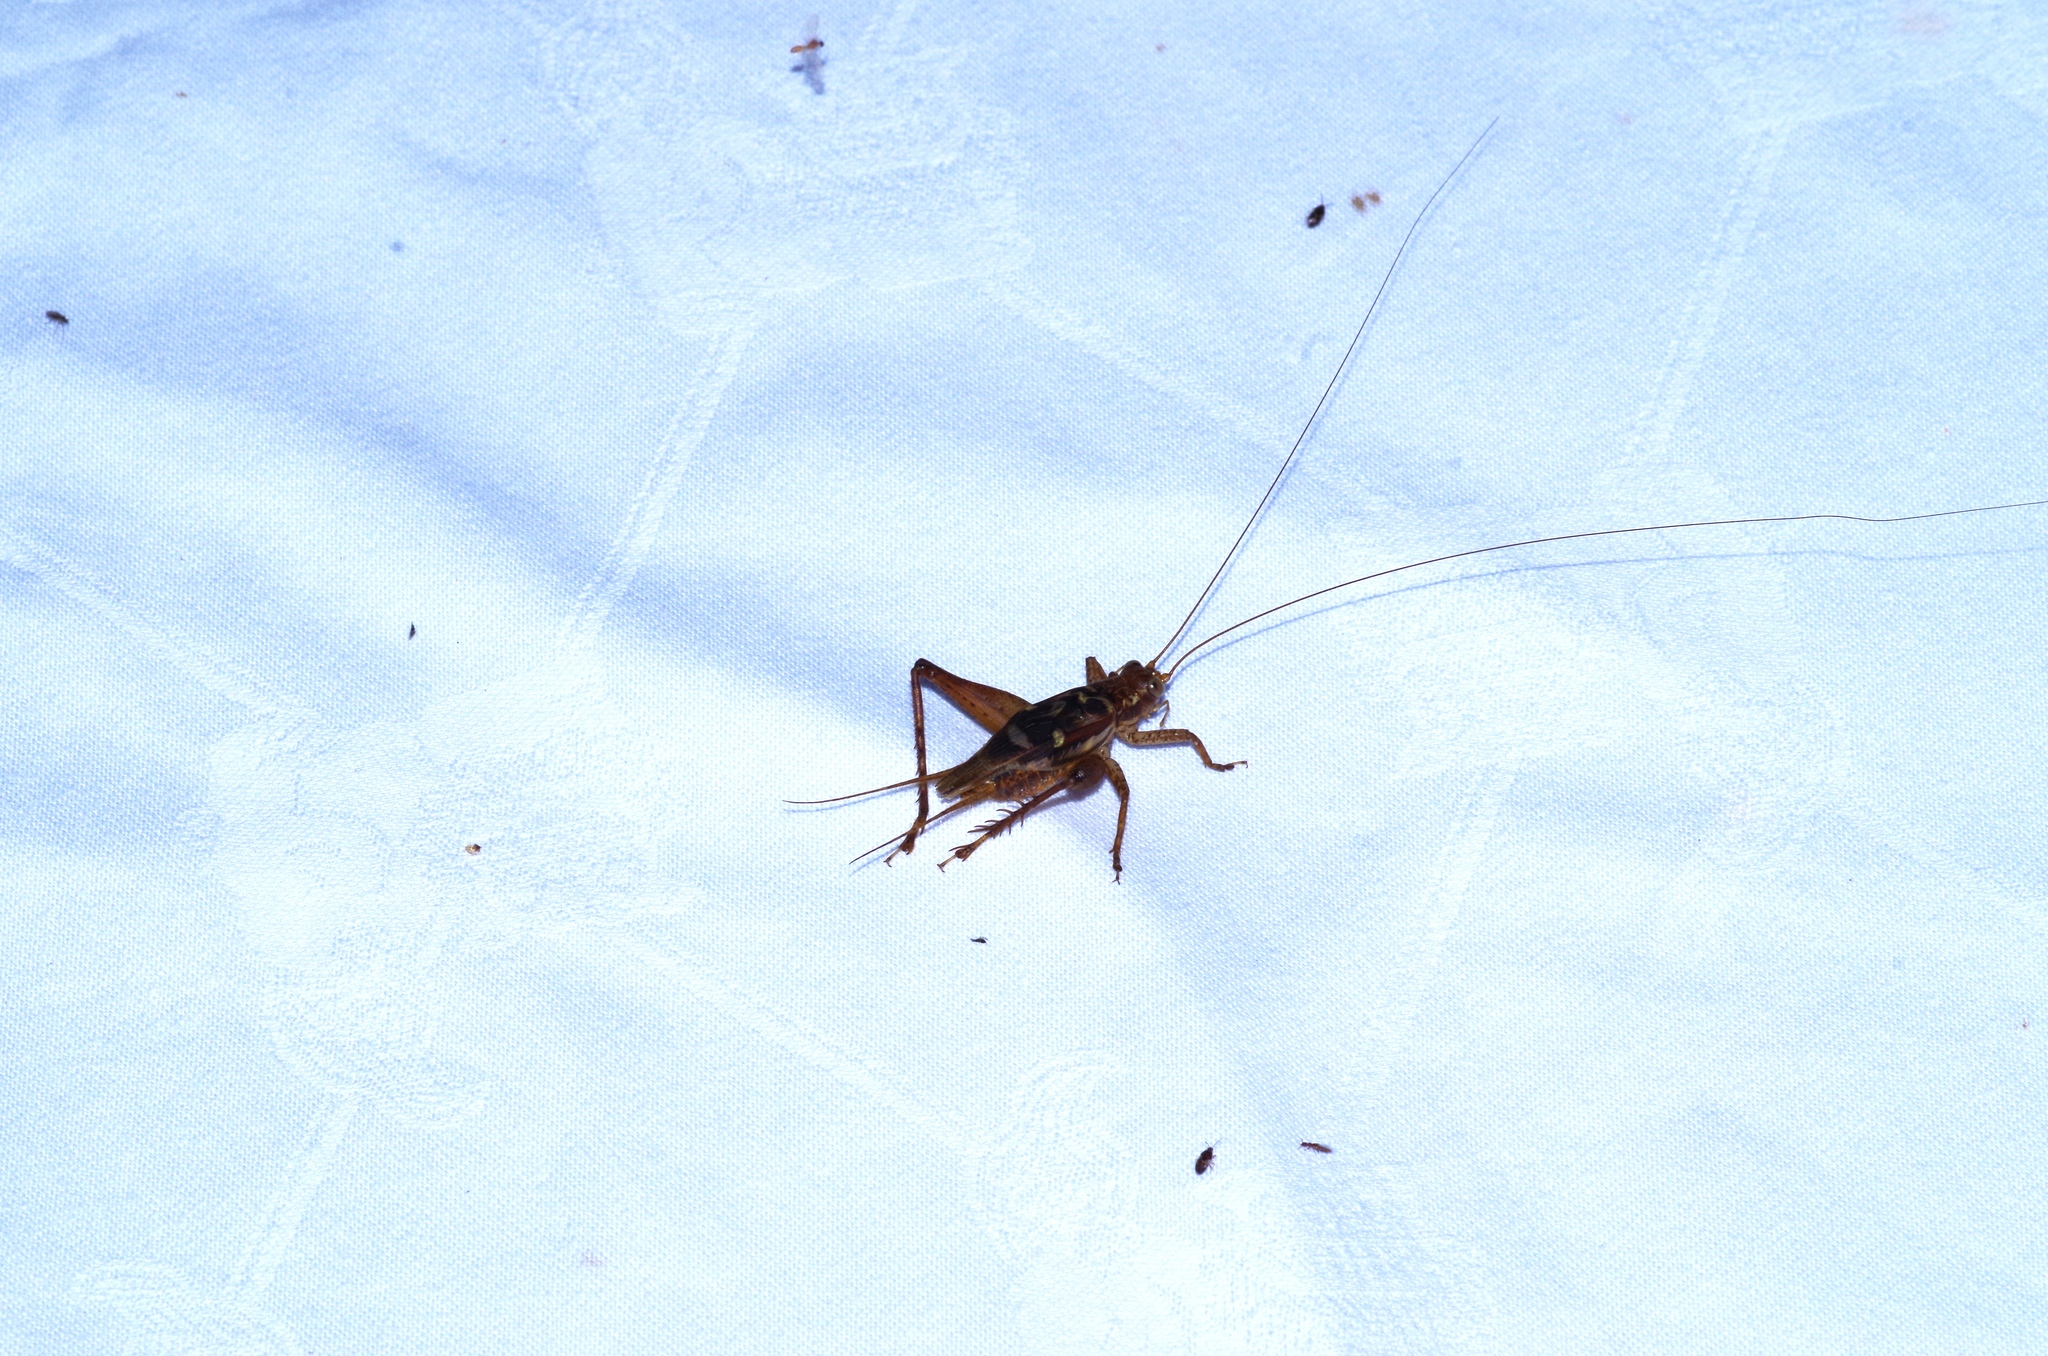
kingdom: Animalia
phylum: Arthropoda
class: Insecta
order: Orthoptera
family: Gryllidae
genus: Cardiodactylus
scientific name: Cardiodactylus guttulus
